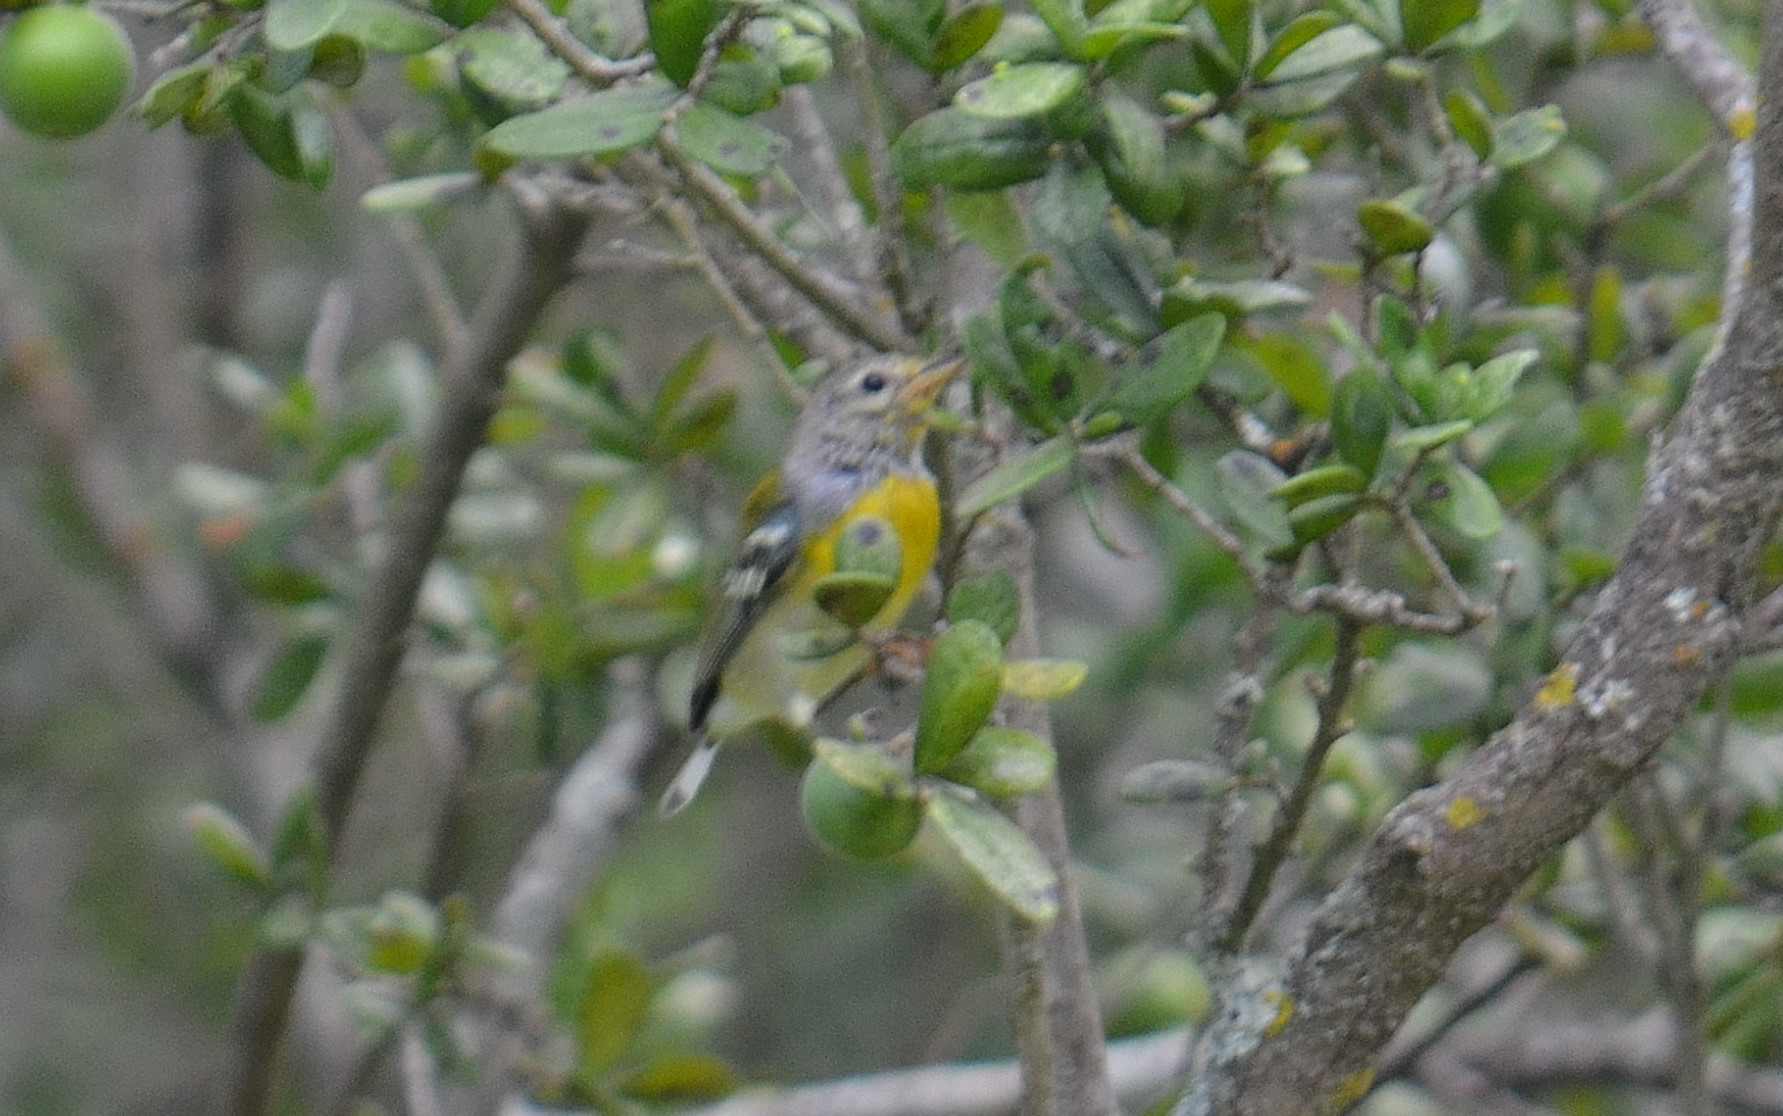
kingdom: Animalia
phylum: Chordata
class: Aves
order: Passeriformes
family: Parulidae
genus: Setophaga
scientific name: Setophaga americana
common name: Northern parula
